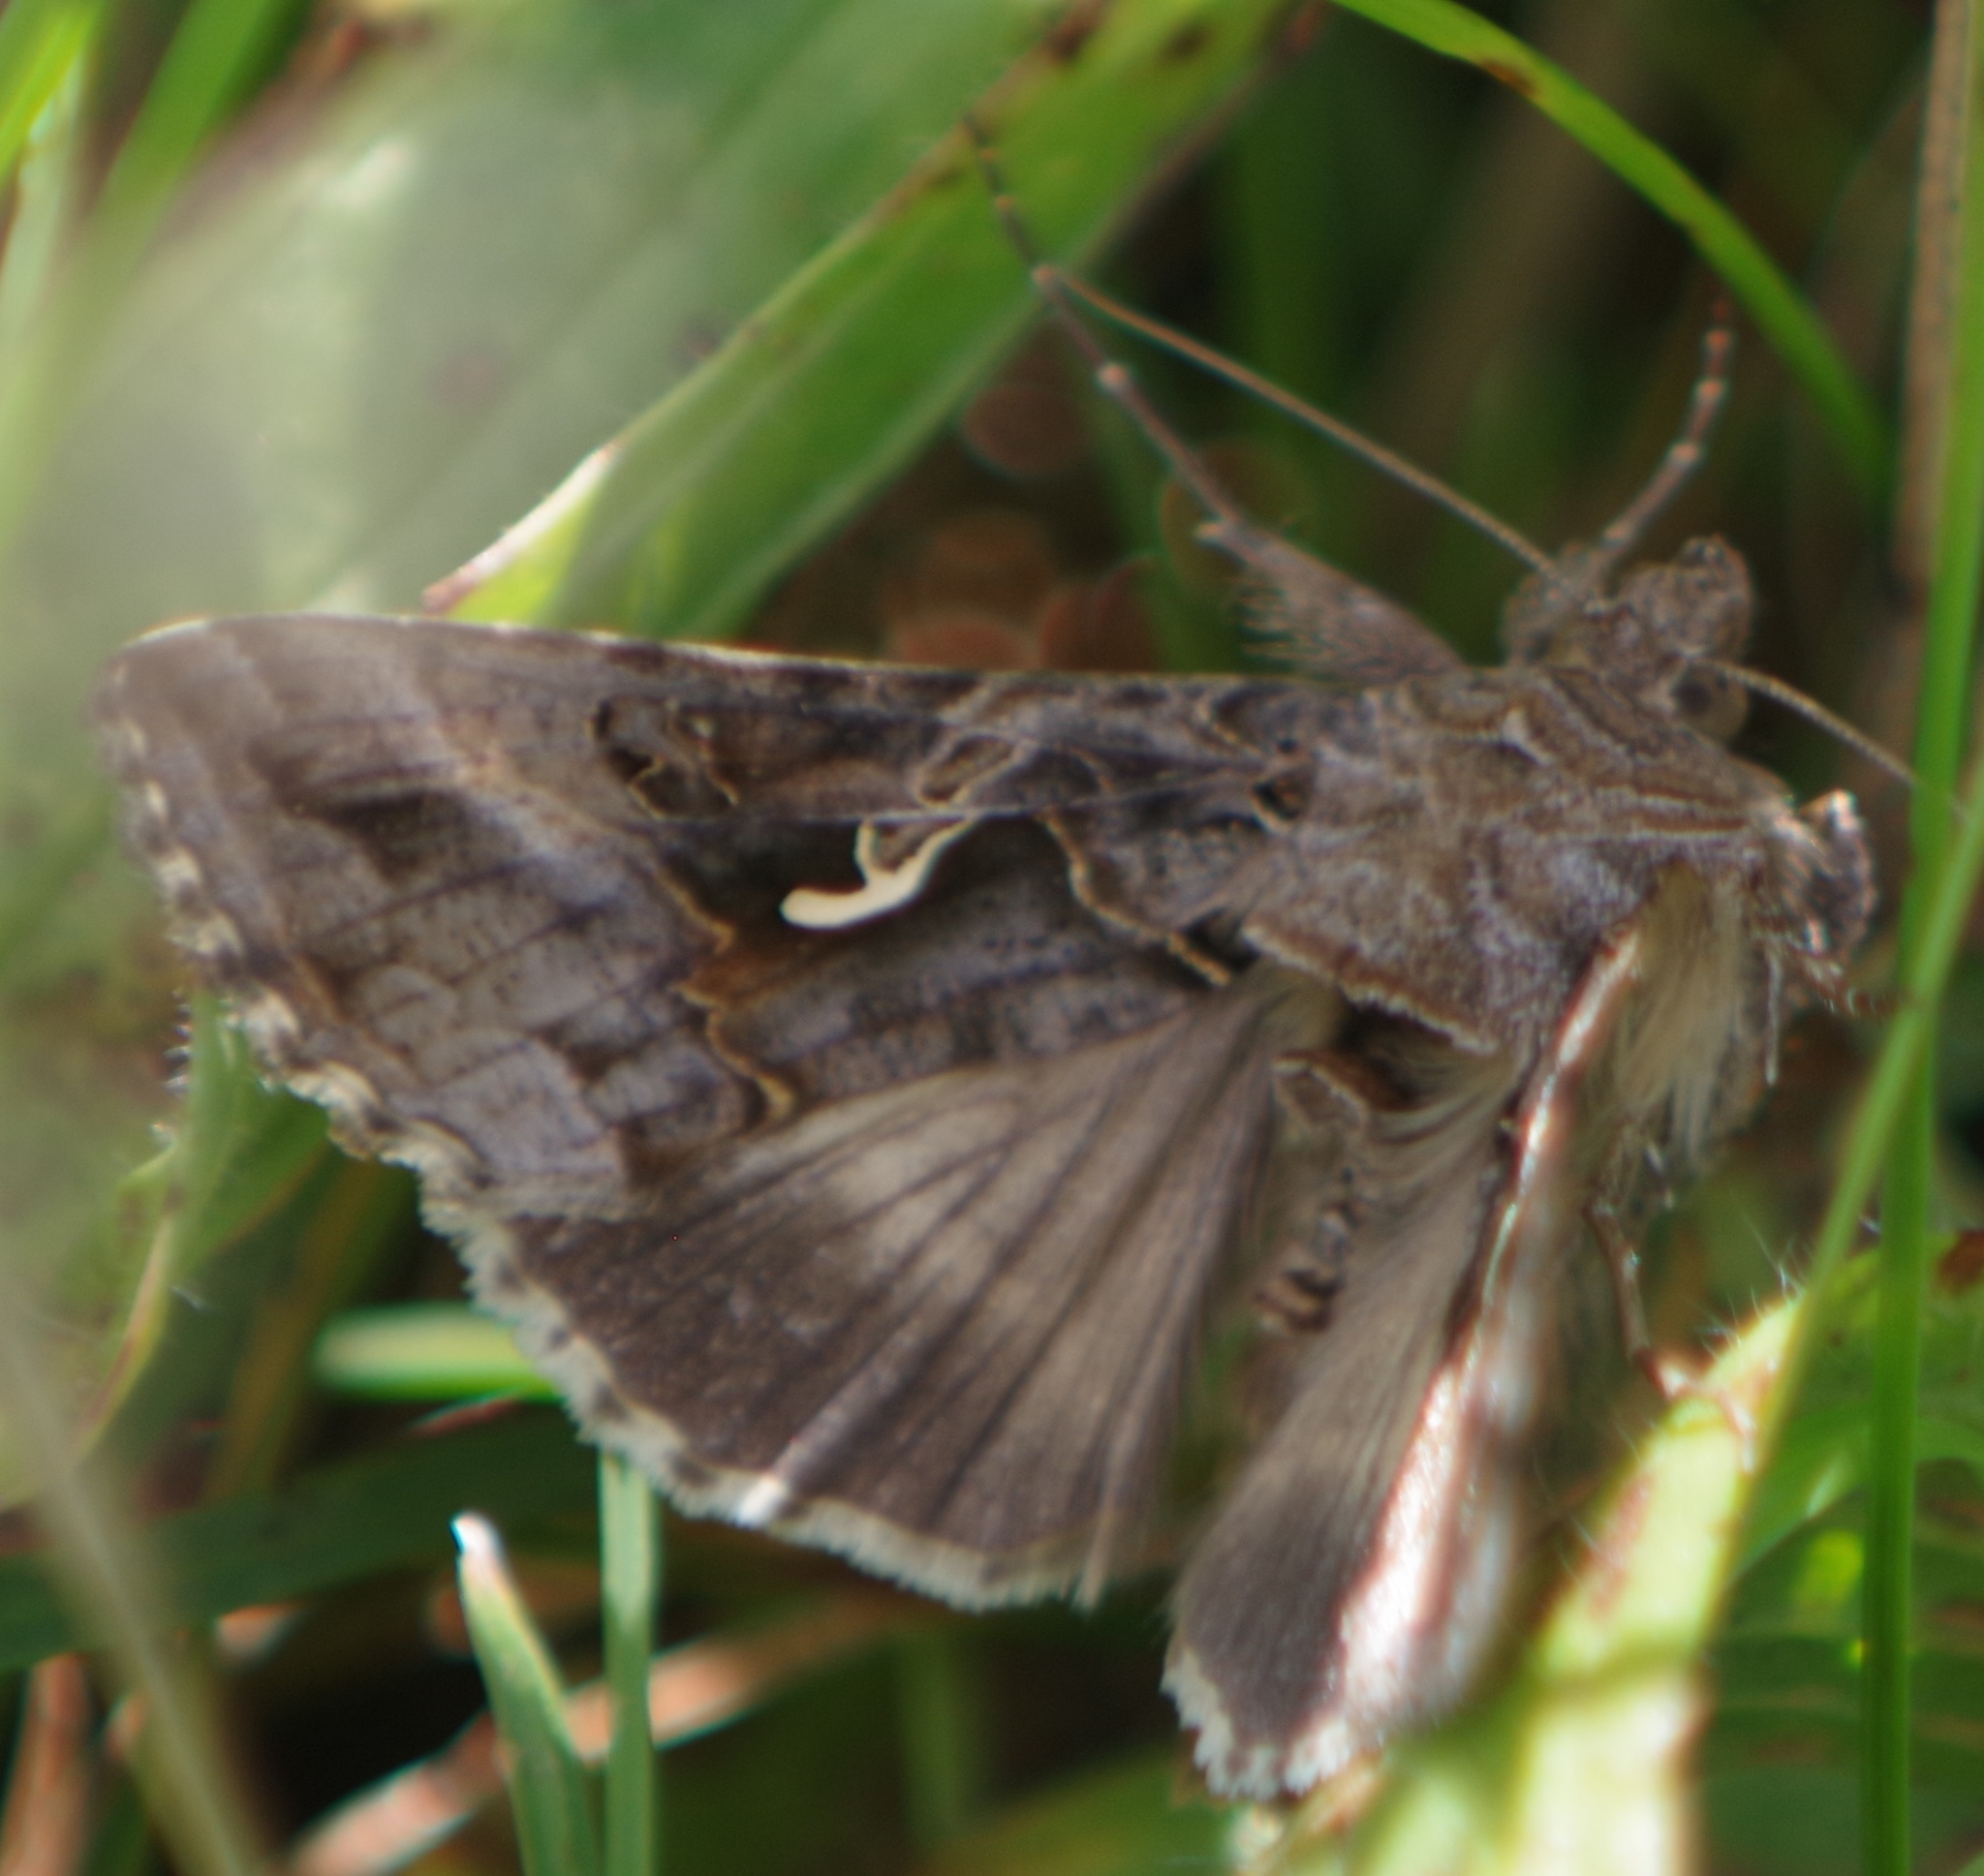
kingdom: Animalia
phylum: Arthropoda
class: Insecta
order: Lepidoptera
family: Noctuidae
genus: Autographa
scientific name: Autographa gamma
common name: Silver y
